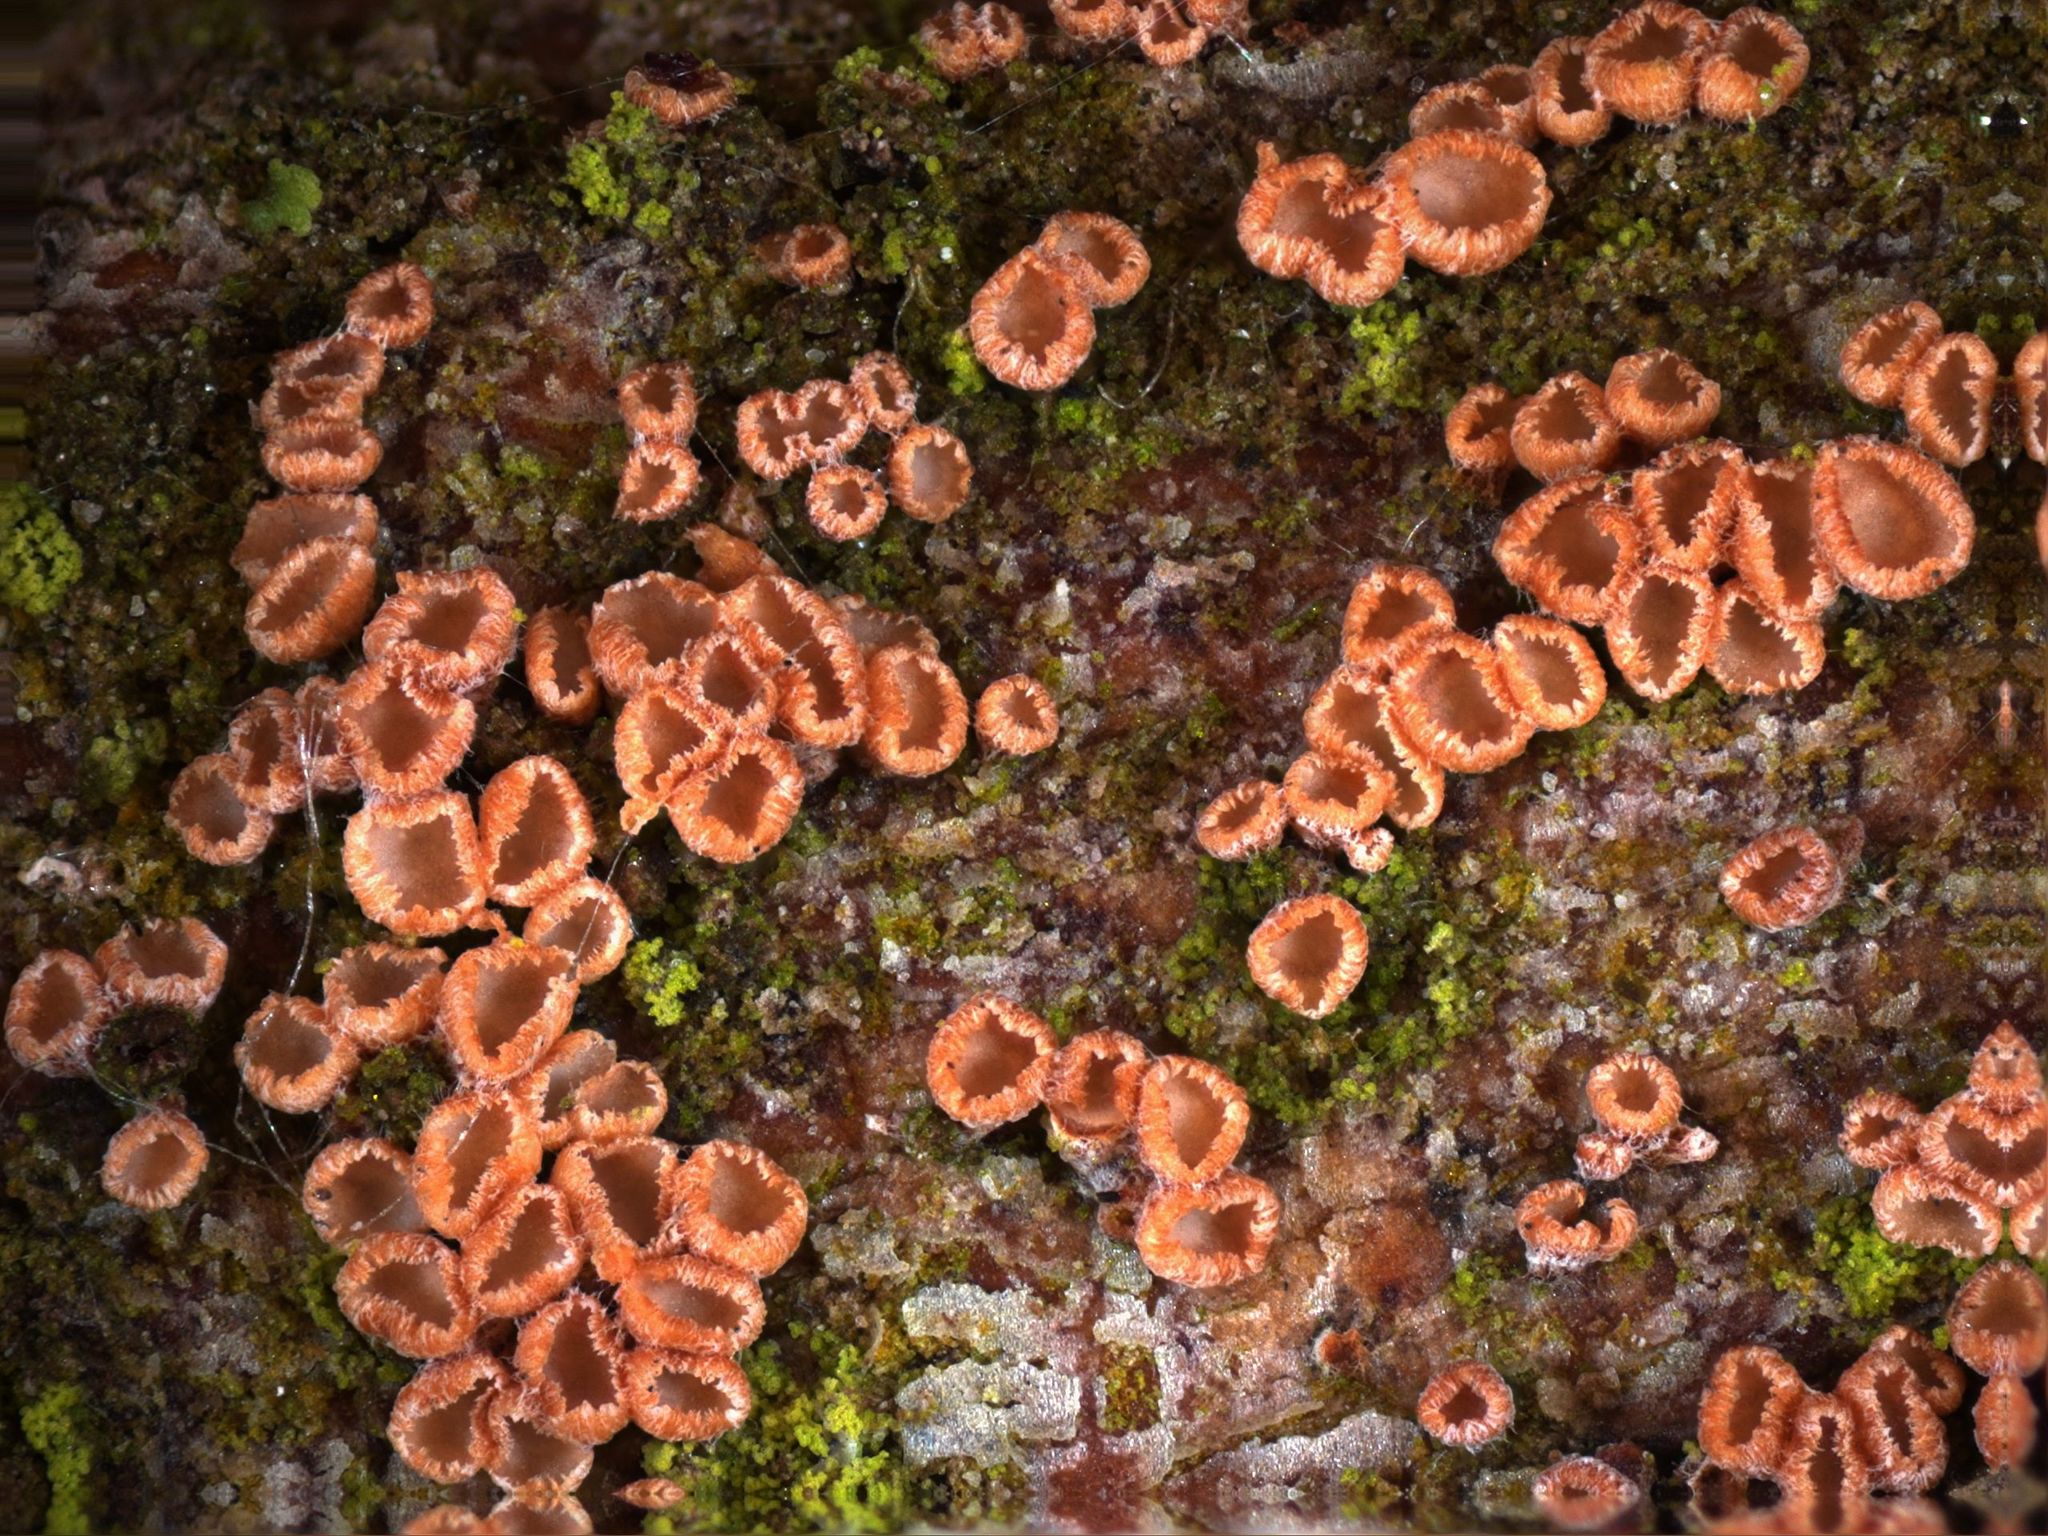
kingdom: Fungi
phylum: Basidiomycota
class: Agaricomycetes
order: Agaricales
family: Niaceae
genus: Merismodes
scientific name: Merismodes anomala
